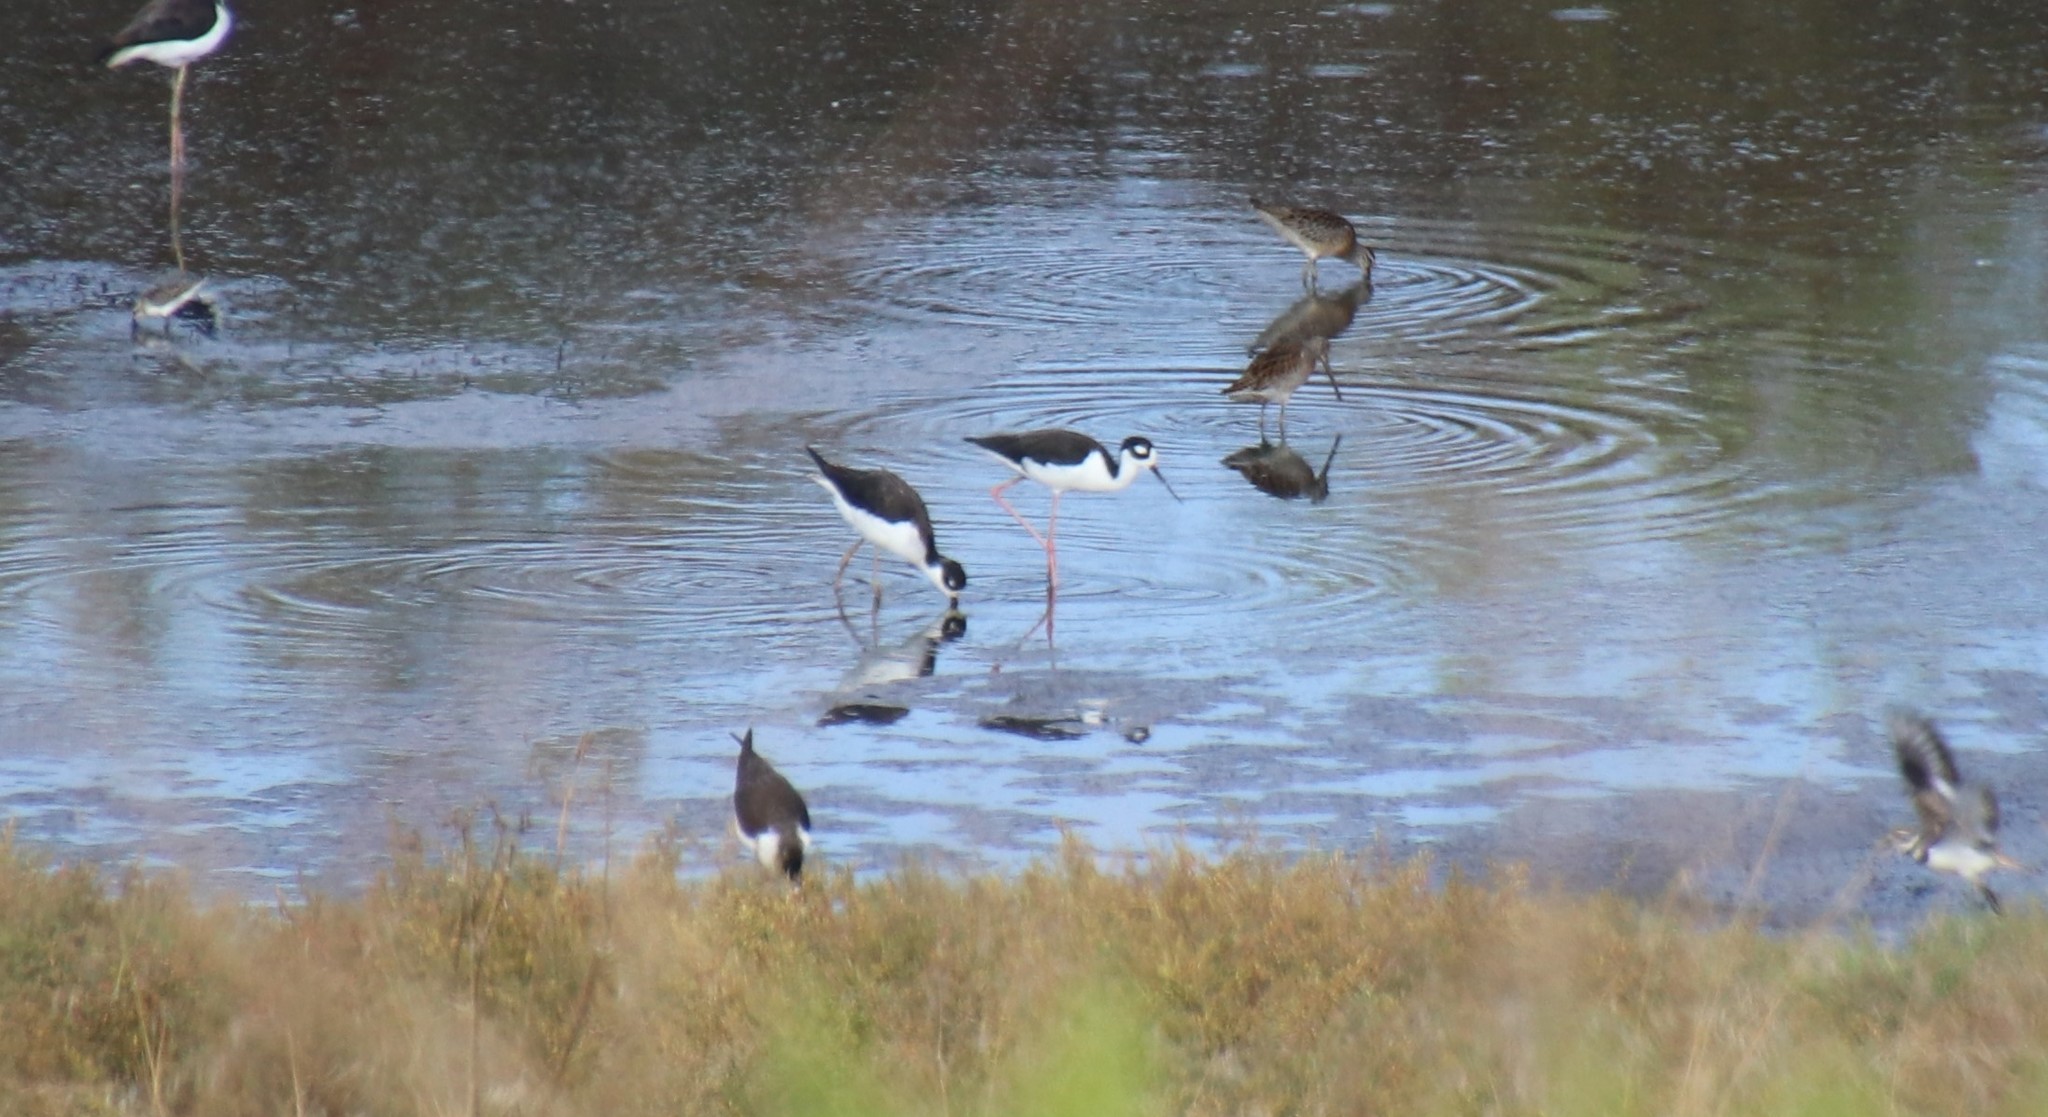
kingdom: Animalia
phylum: Chordata
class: Aves
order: Charadriiformes
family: Recurvirostridae
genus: Himantopus
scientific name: Himantopus mexicanus
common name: Black-necked stilt
